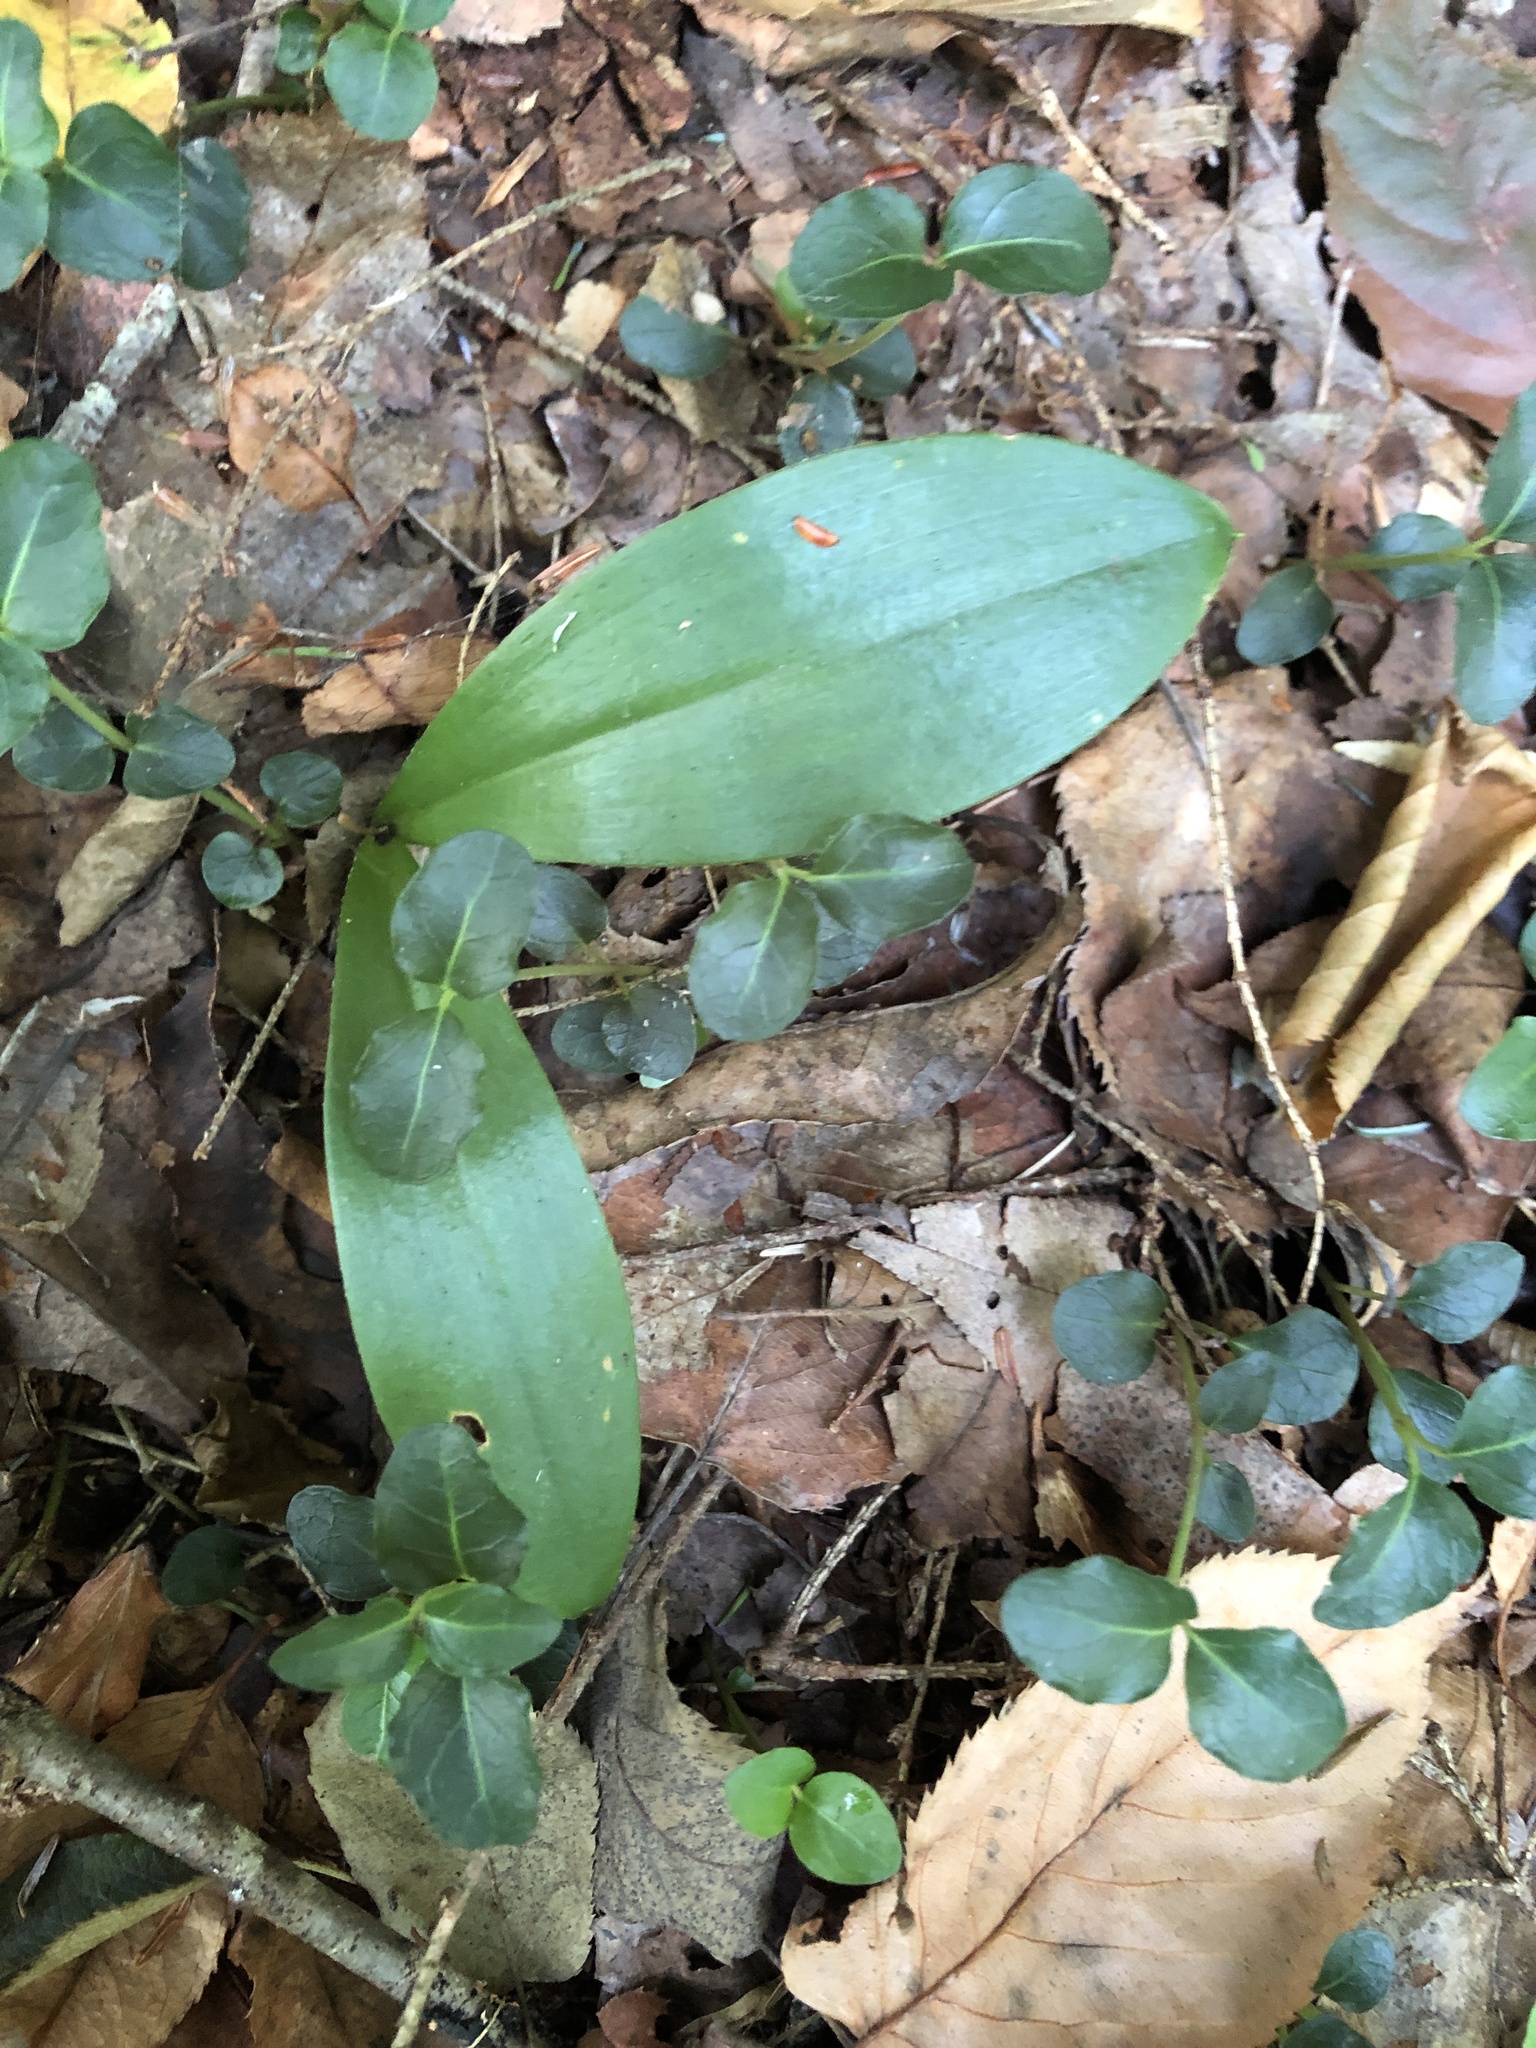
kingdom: Plantae
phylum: Tracheophyta
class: Liliopsida
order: Liliales
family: Liliaceae
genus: Clintonia
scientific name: Clintonia borealis
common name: Yellow clintonia
